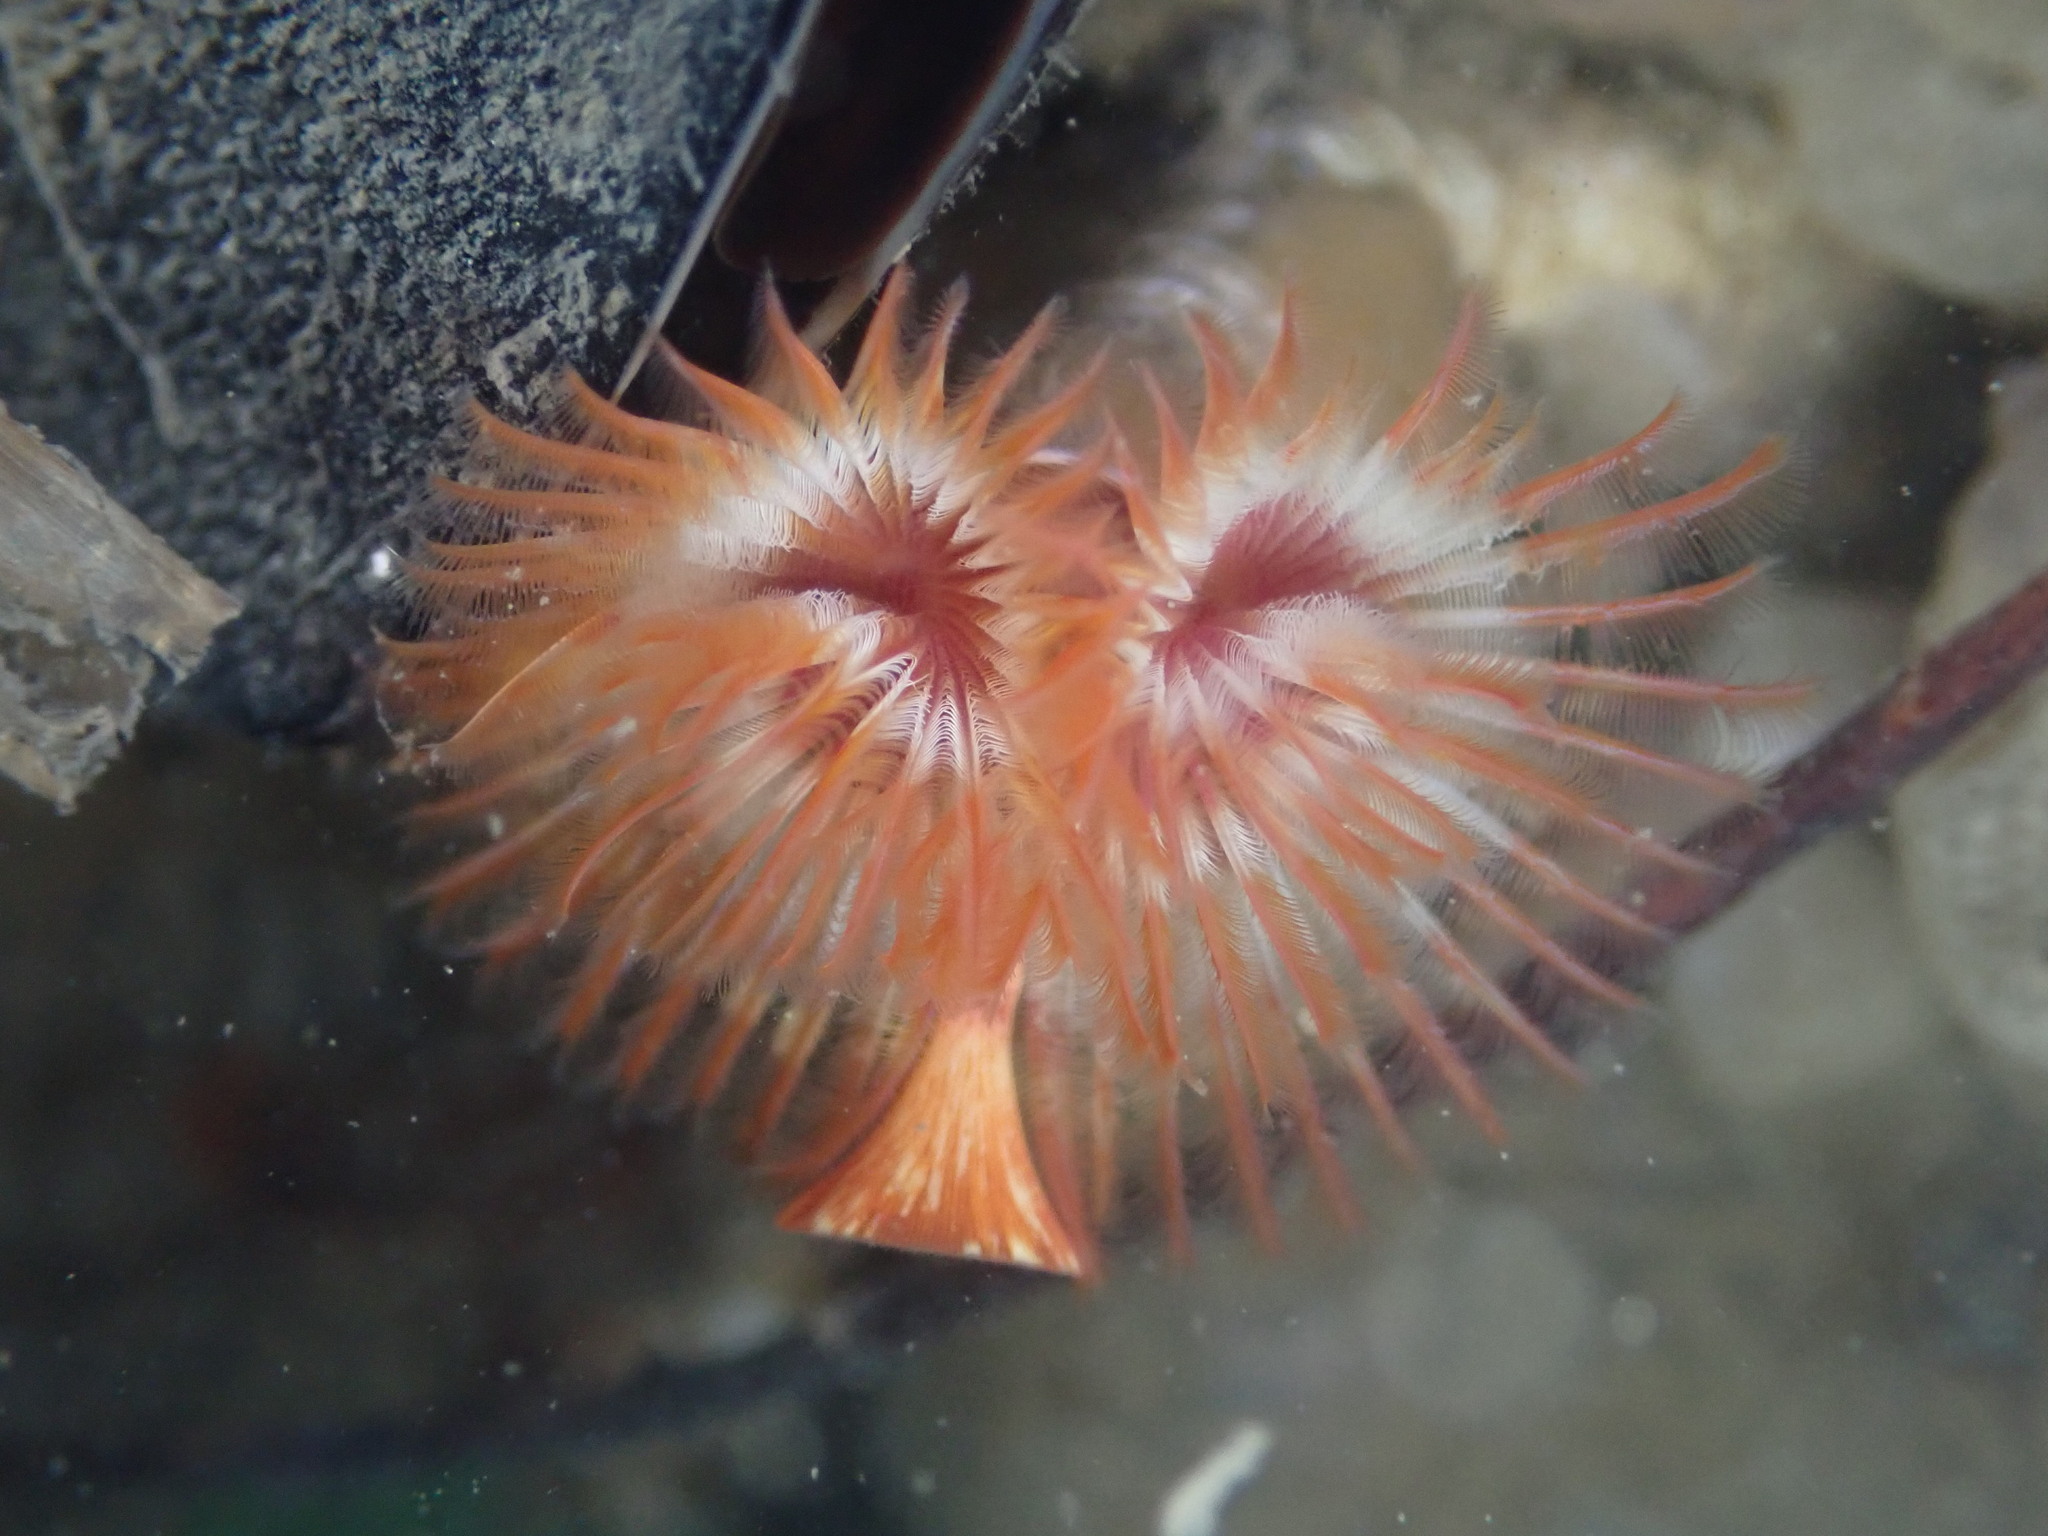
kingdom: Animalia
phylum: Annelida
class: Polychaeta
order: Sabellida
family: Serpulidae
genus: Serpula
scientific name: Serpula columbiana
